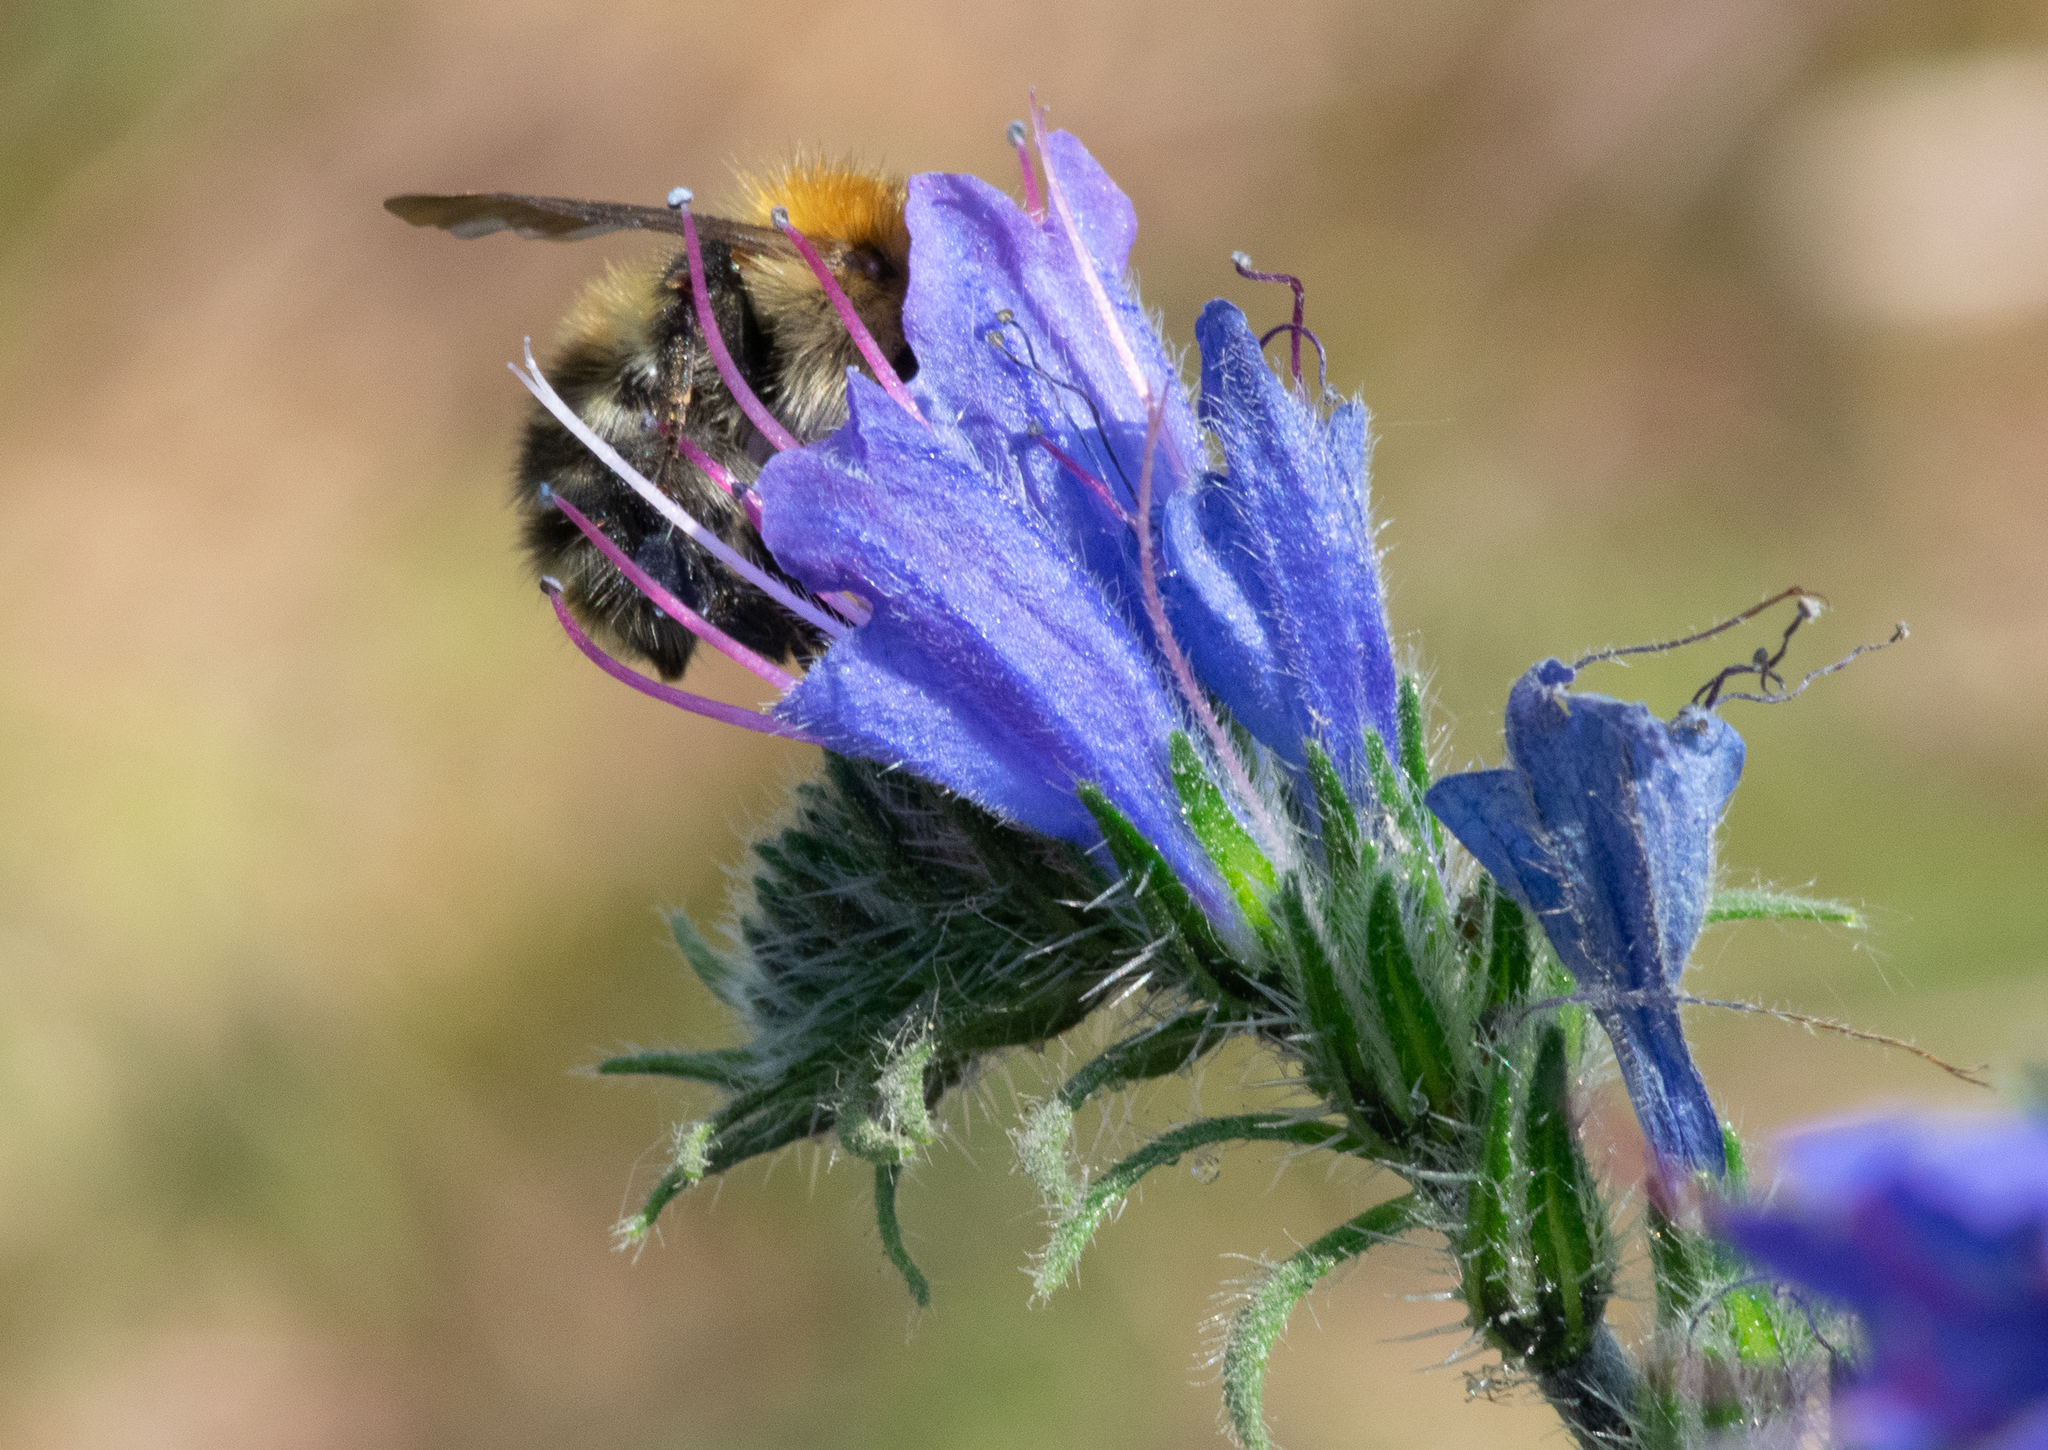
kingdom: Animalia
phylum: Arthropoda
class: Insecta
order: Hymenoptera
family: Apidae
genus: Bombus
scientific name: Bombus pascuorum
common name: Common carder bee
